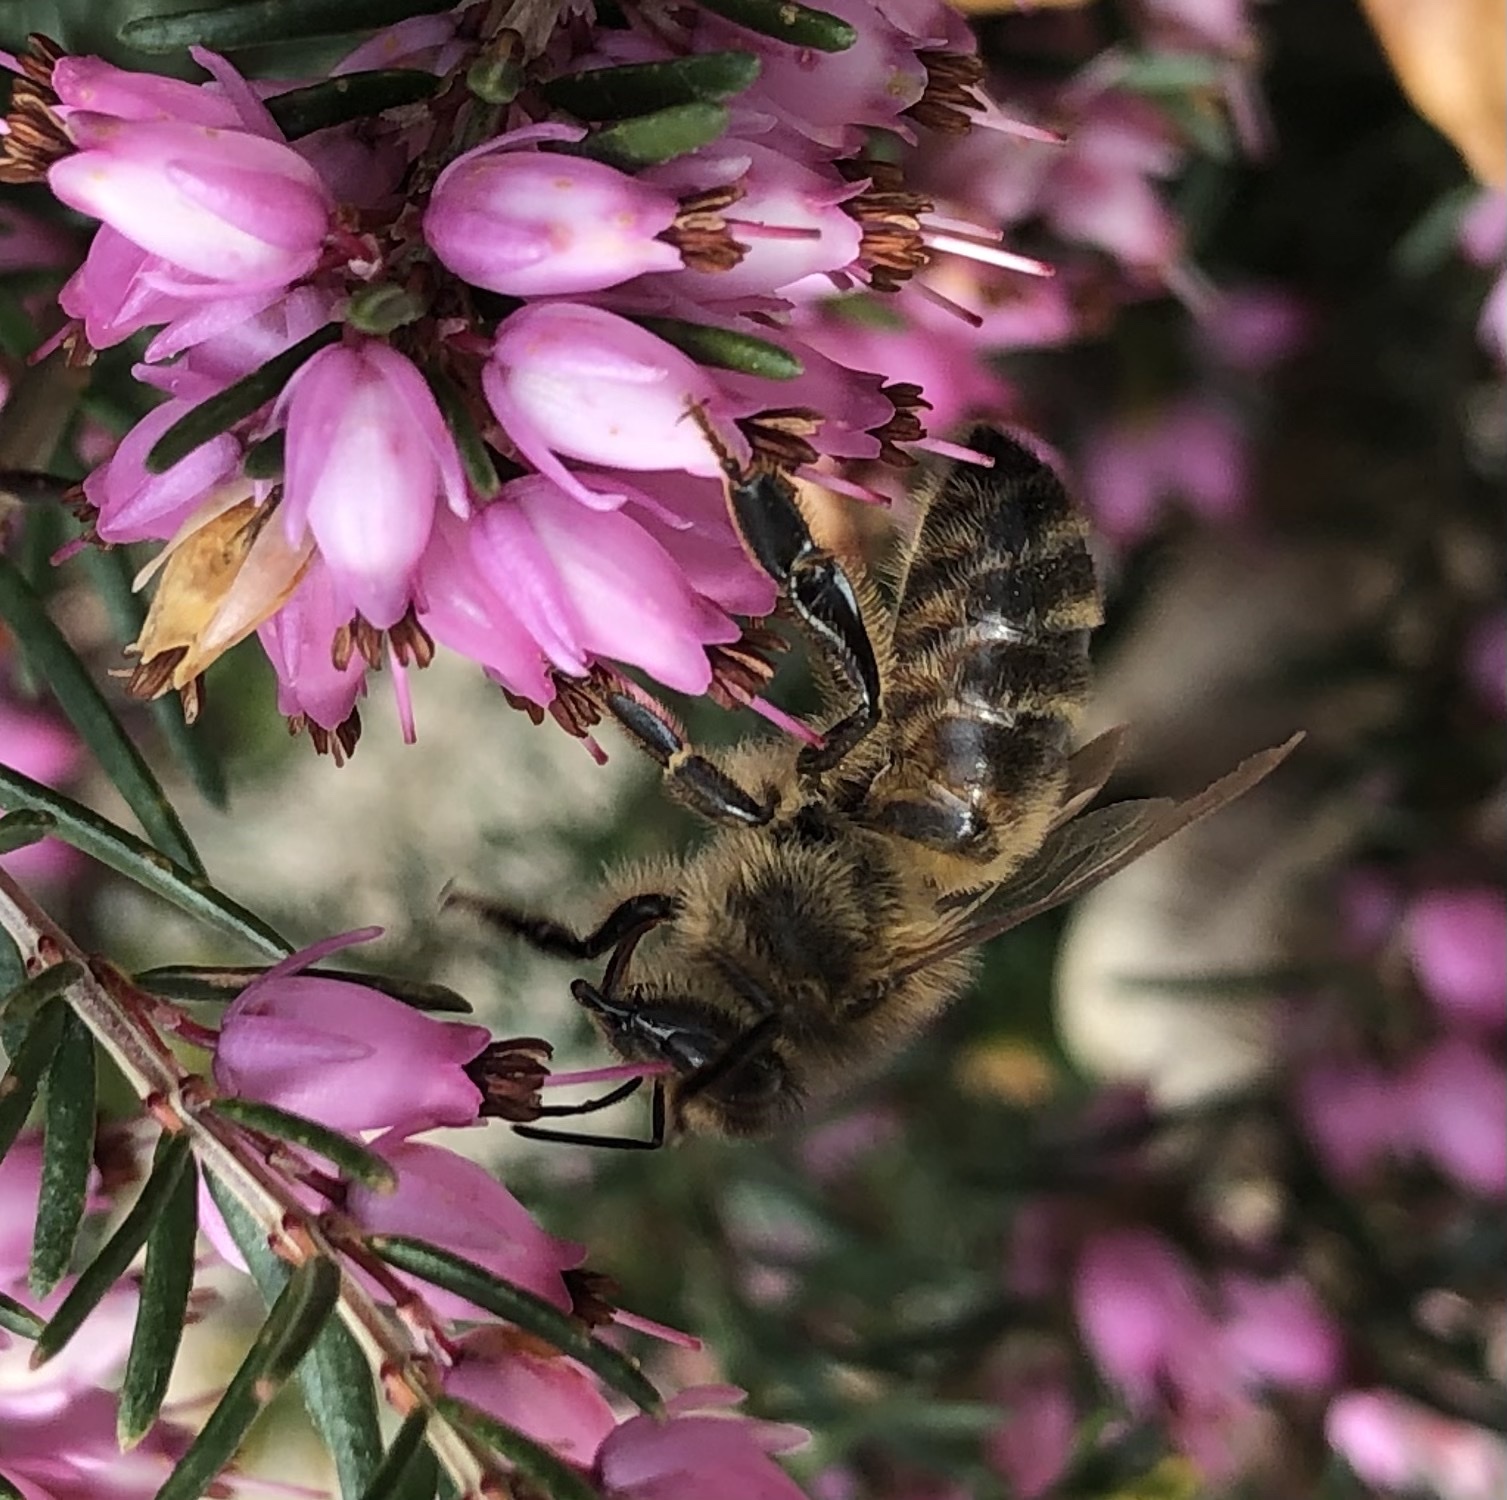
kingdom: Animalia
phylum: Arthropoda
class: Insecta
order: Hymenoptera
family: Apidae
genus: Apis
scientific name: Apis mellifera
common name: Honey bee
